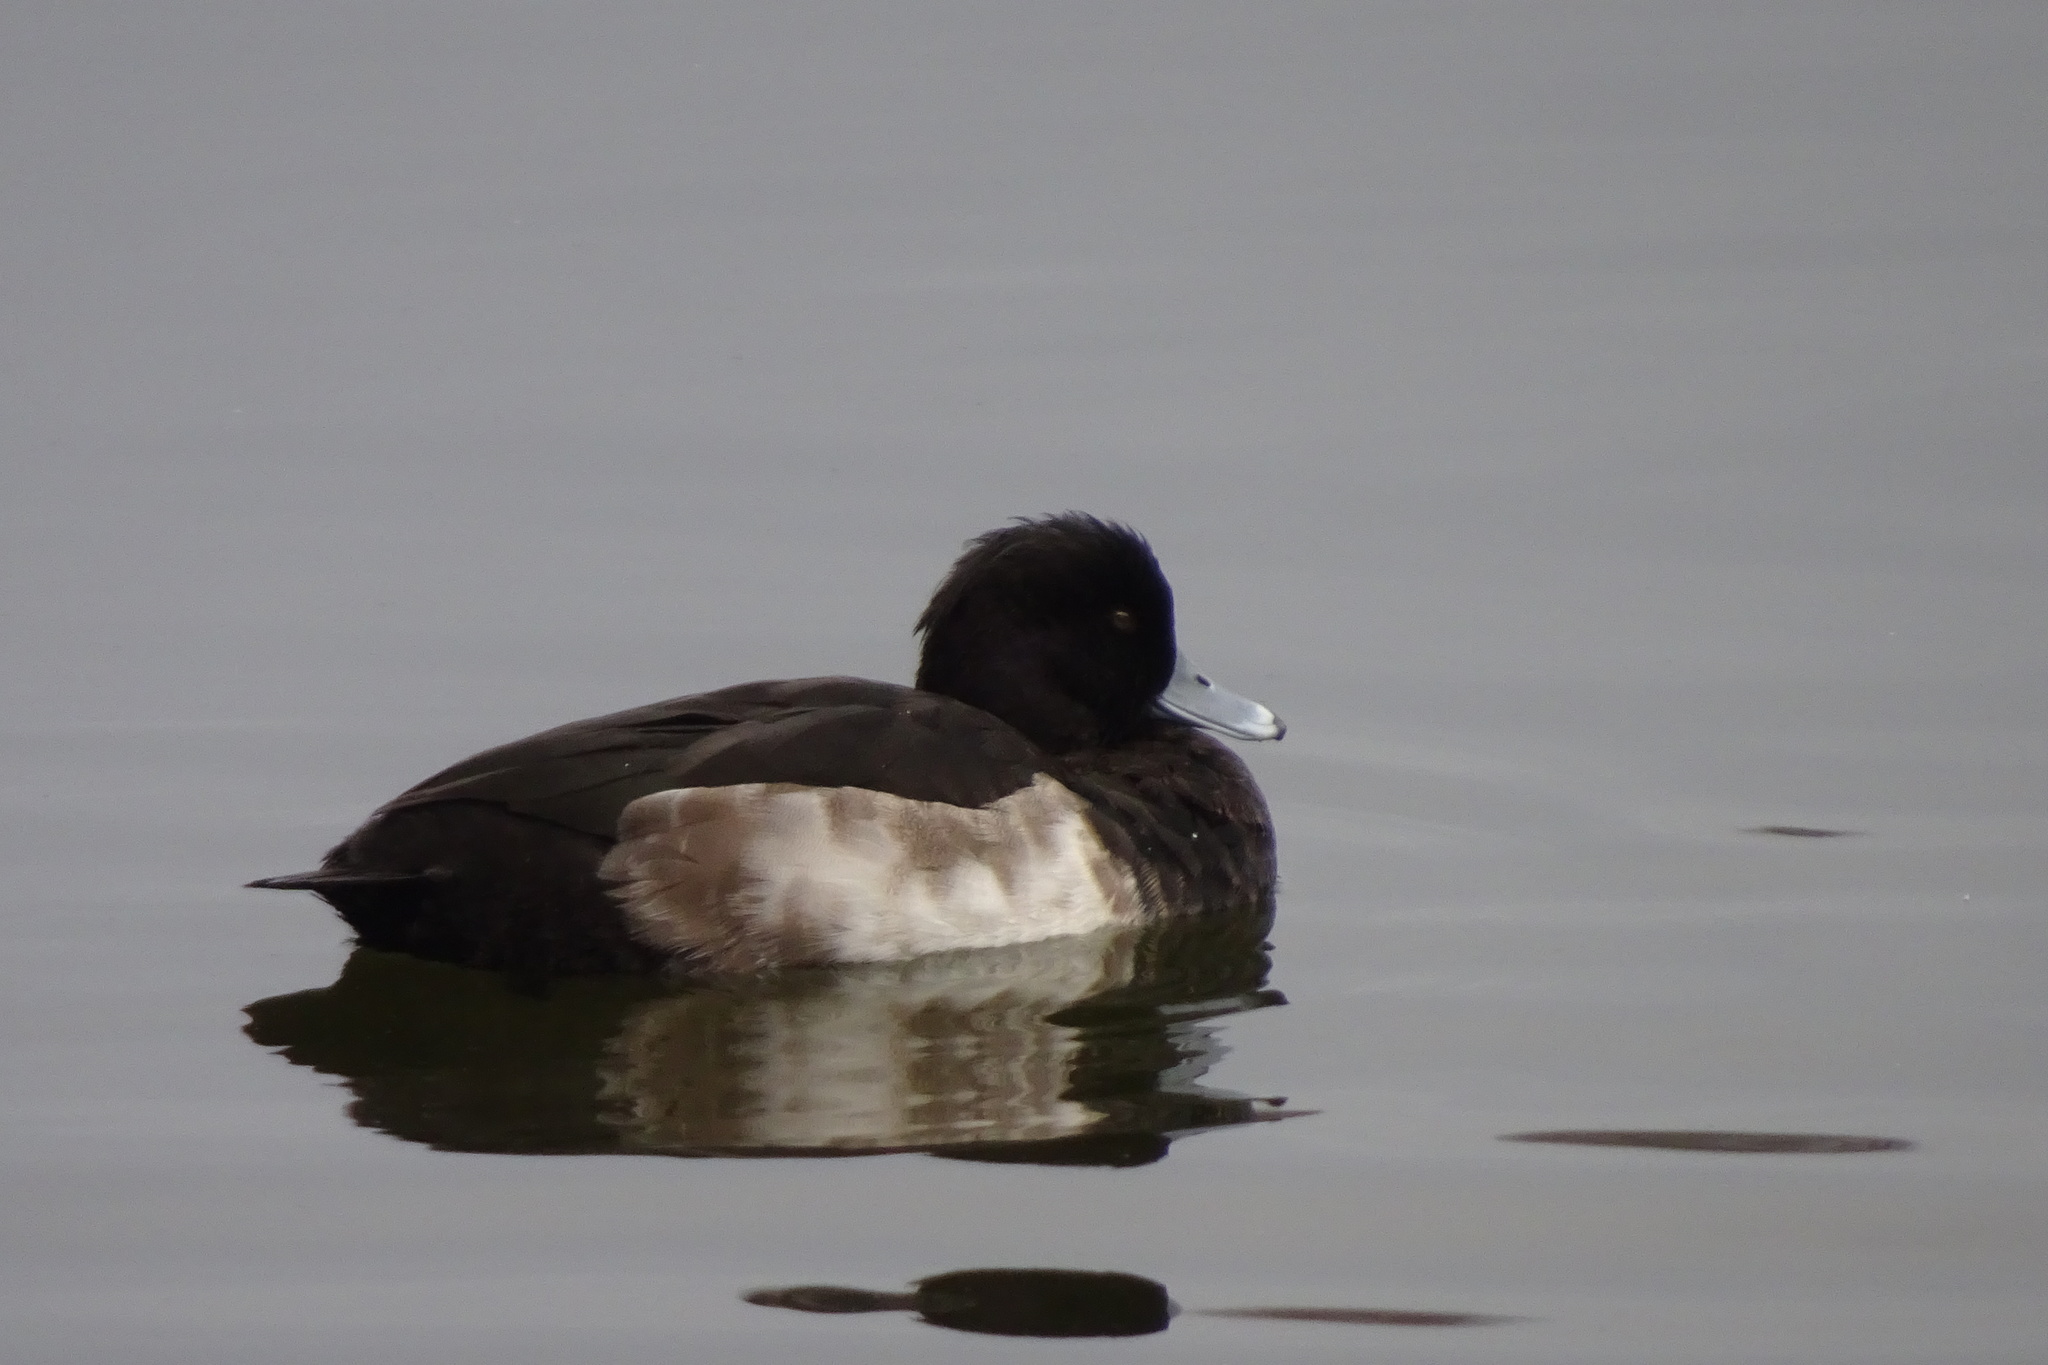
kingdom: Animalia
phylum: Chordata
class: Aves
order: Anseriformes
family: Anatidae
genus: Aythya
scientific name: Aythya fuligula
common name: Tufted duck
